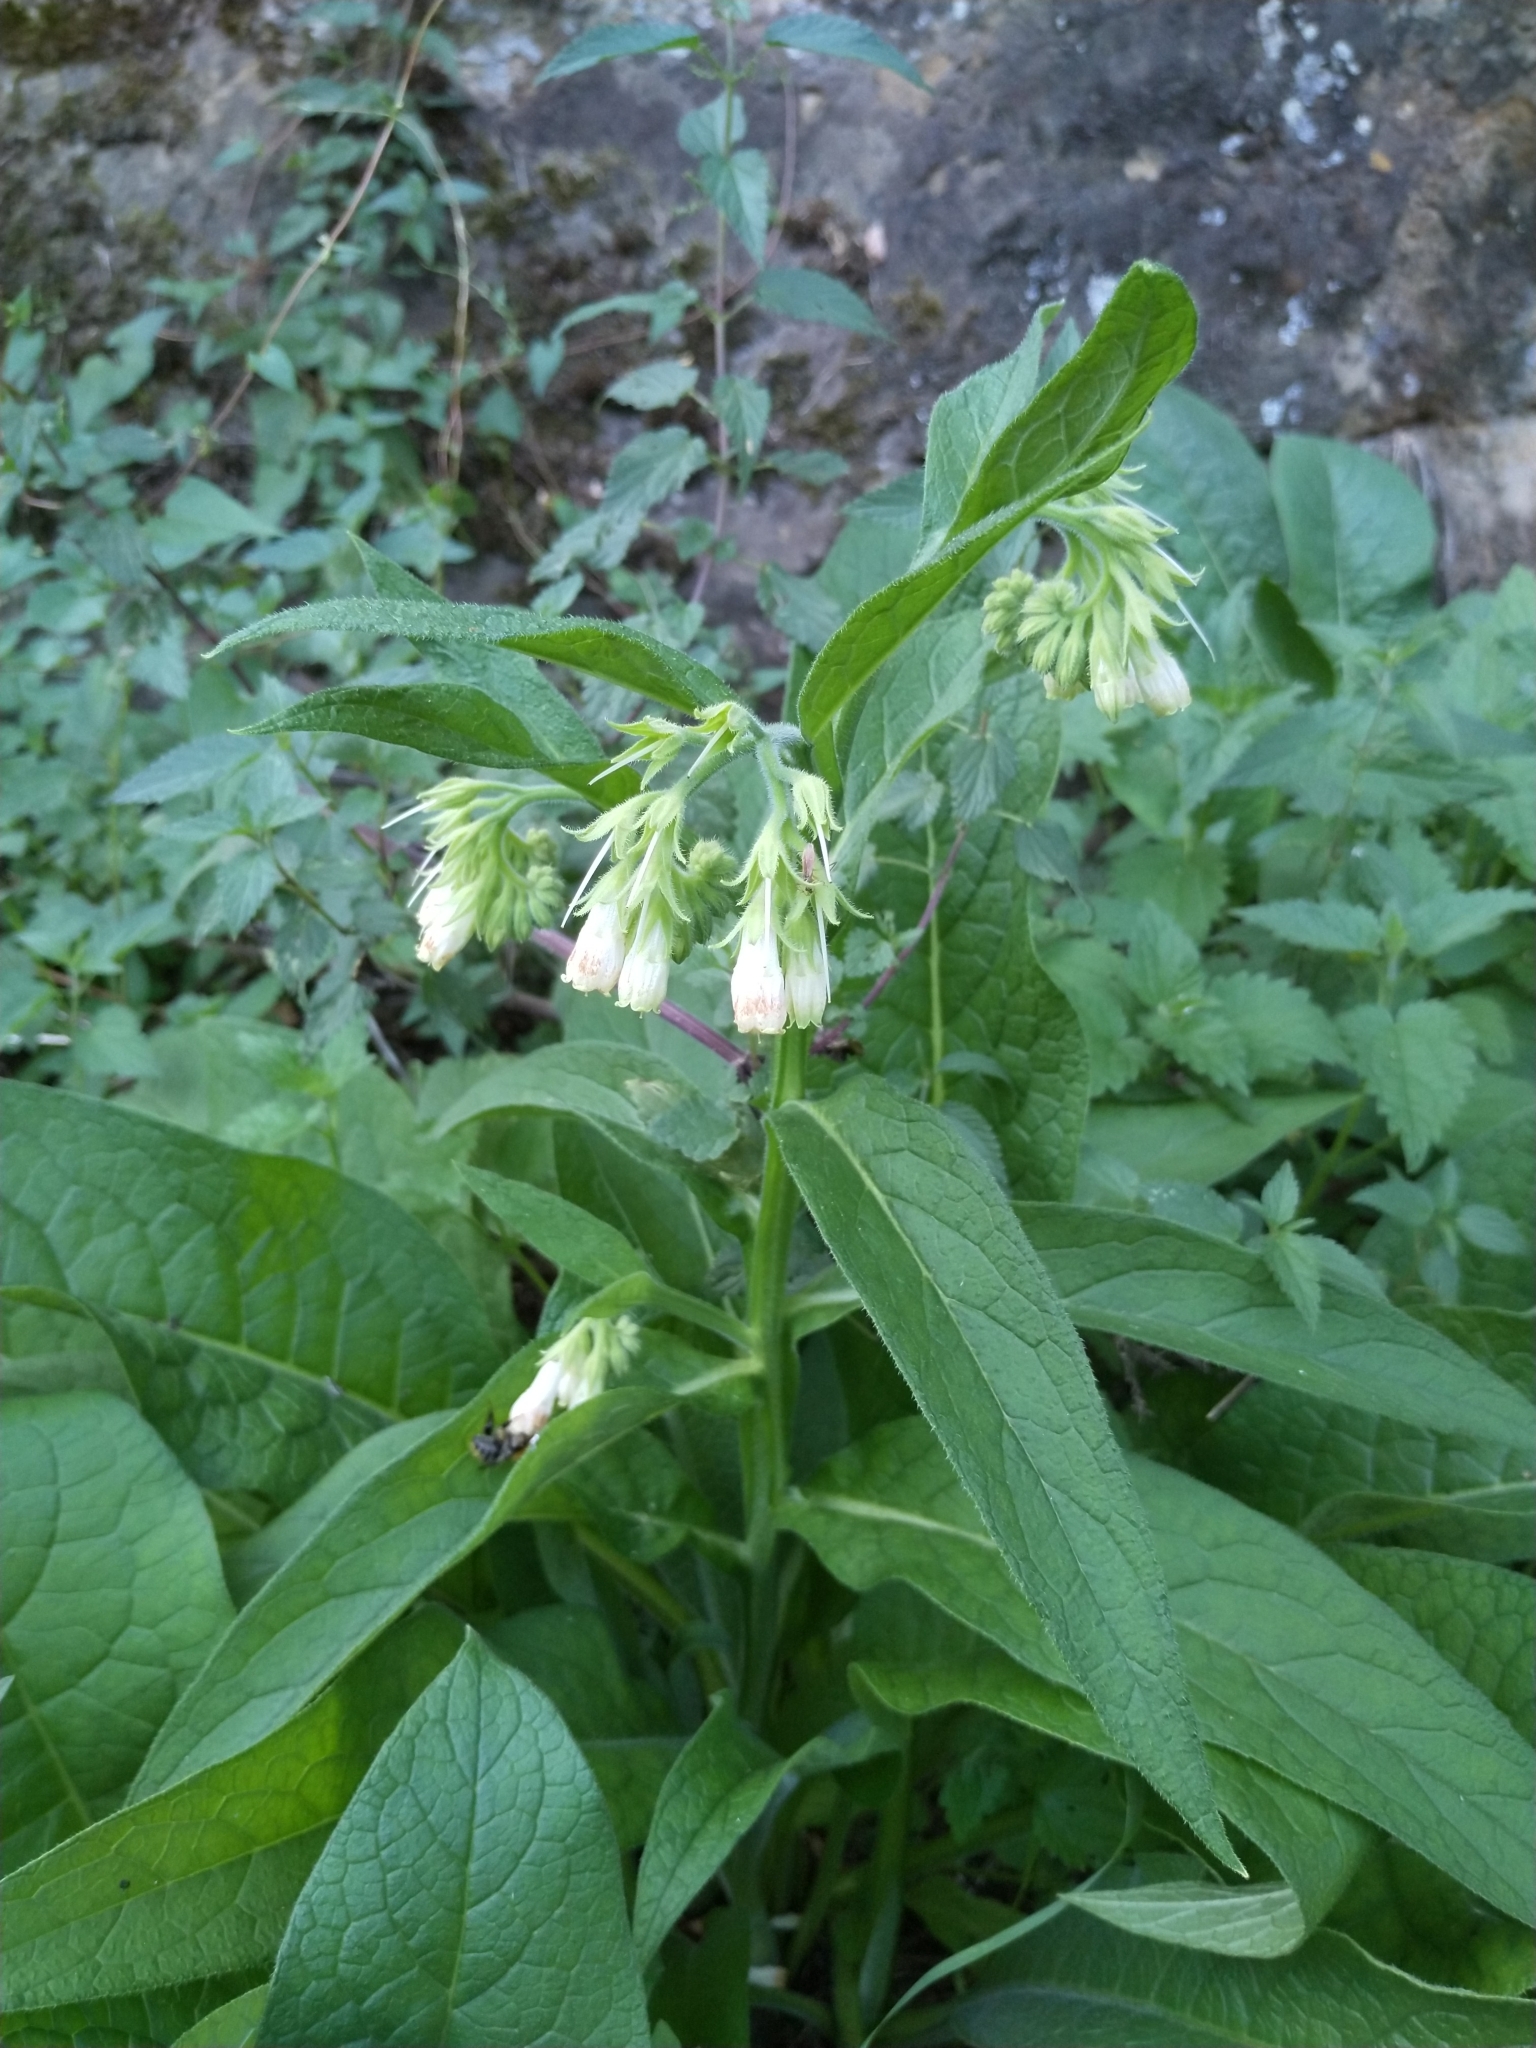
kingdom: Plantae
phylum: Tracheophyta
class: Magnoliopsida
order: Boraginales
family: Boraginaceae
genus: Symphytum
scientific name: Symphytum officinale
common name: Common comfrey
